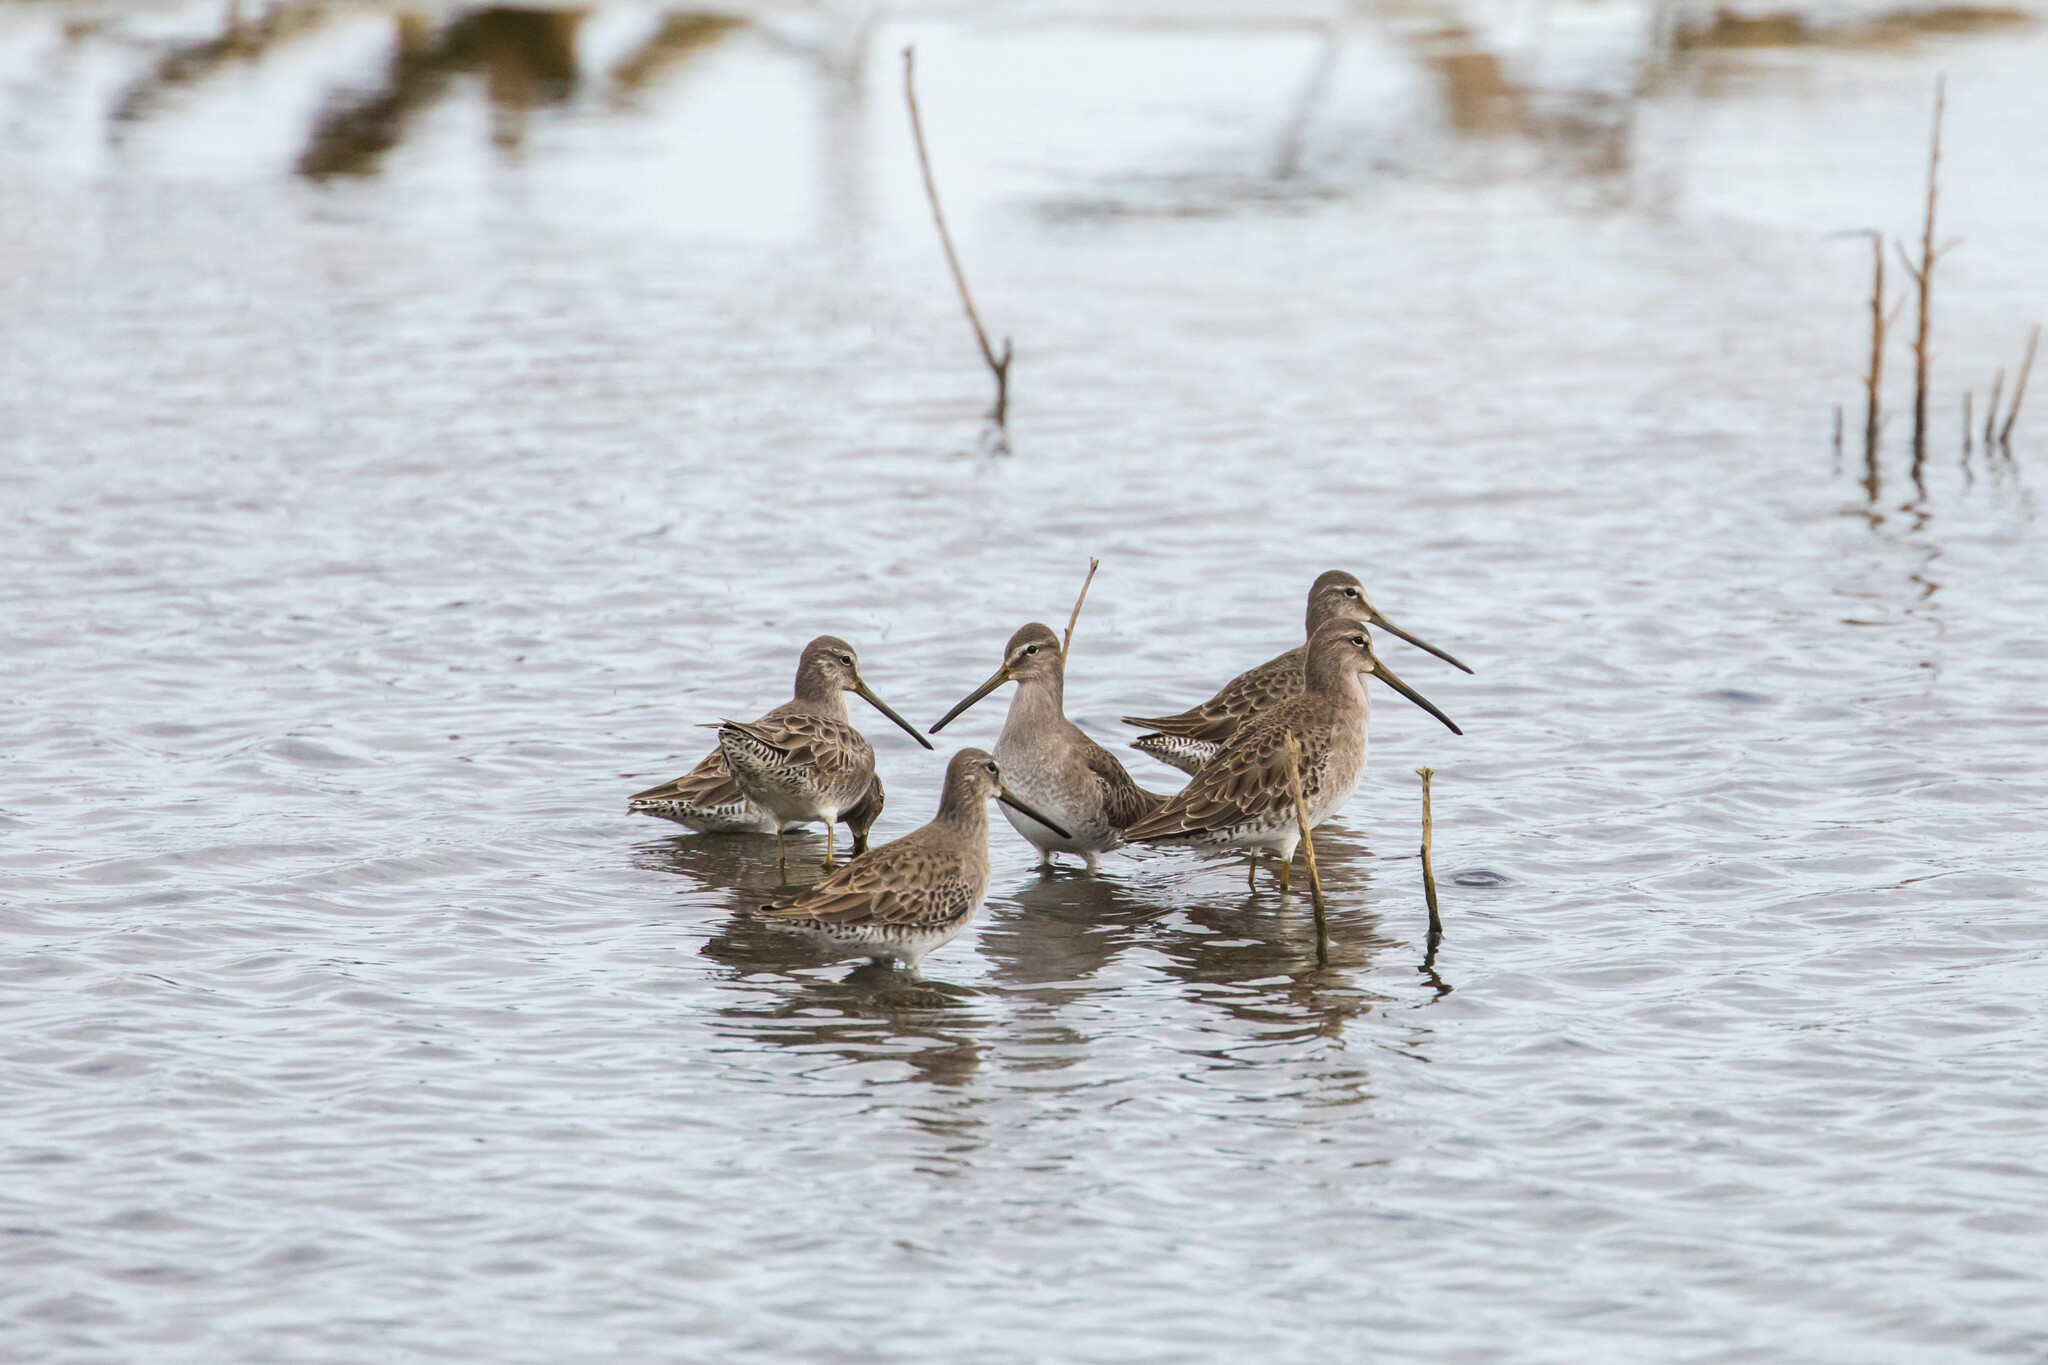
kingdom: Animalia
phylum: Chordata
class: Aves
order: Charadriiformes
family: Scolopacidae
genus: Limnodromus
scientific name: Limnodromus scolopaceus
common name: Long-billed dowitcher
